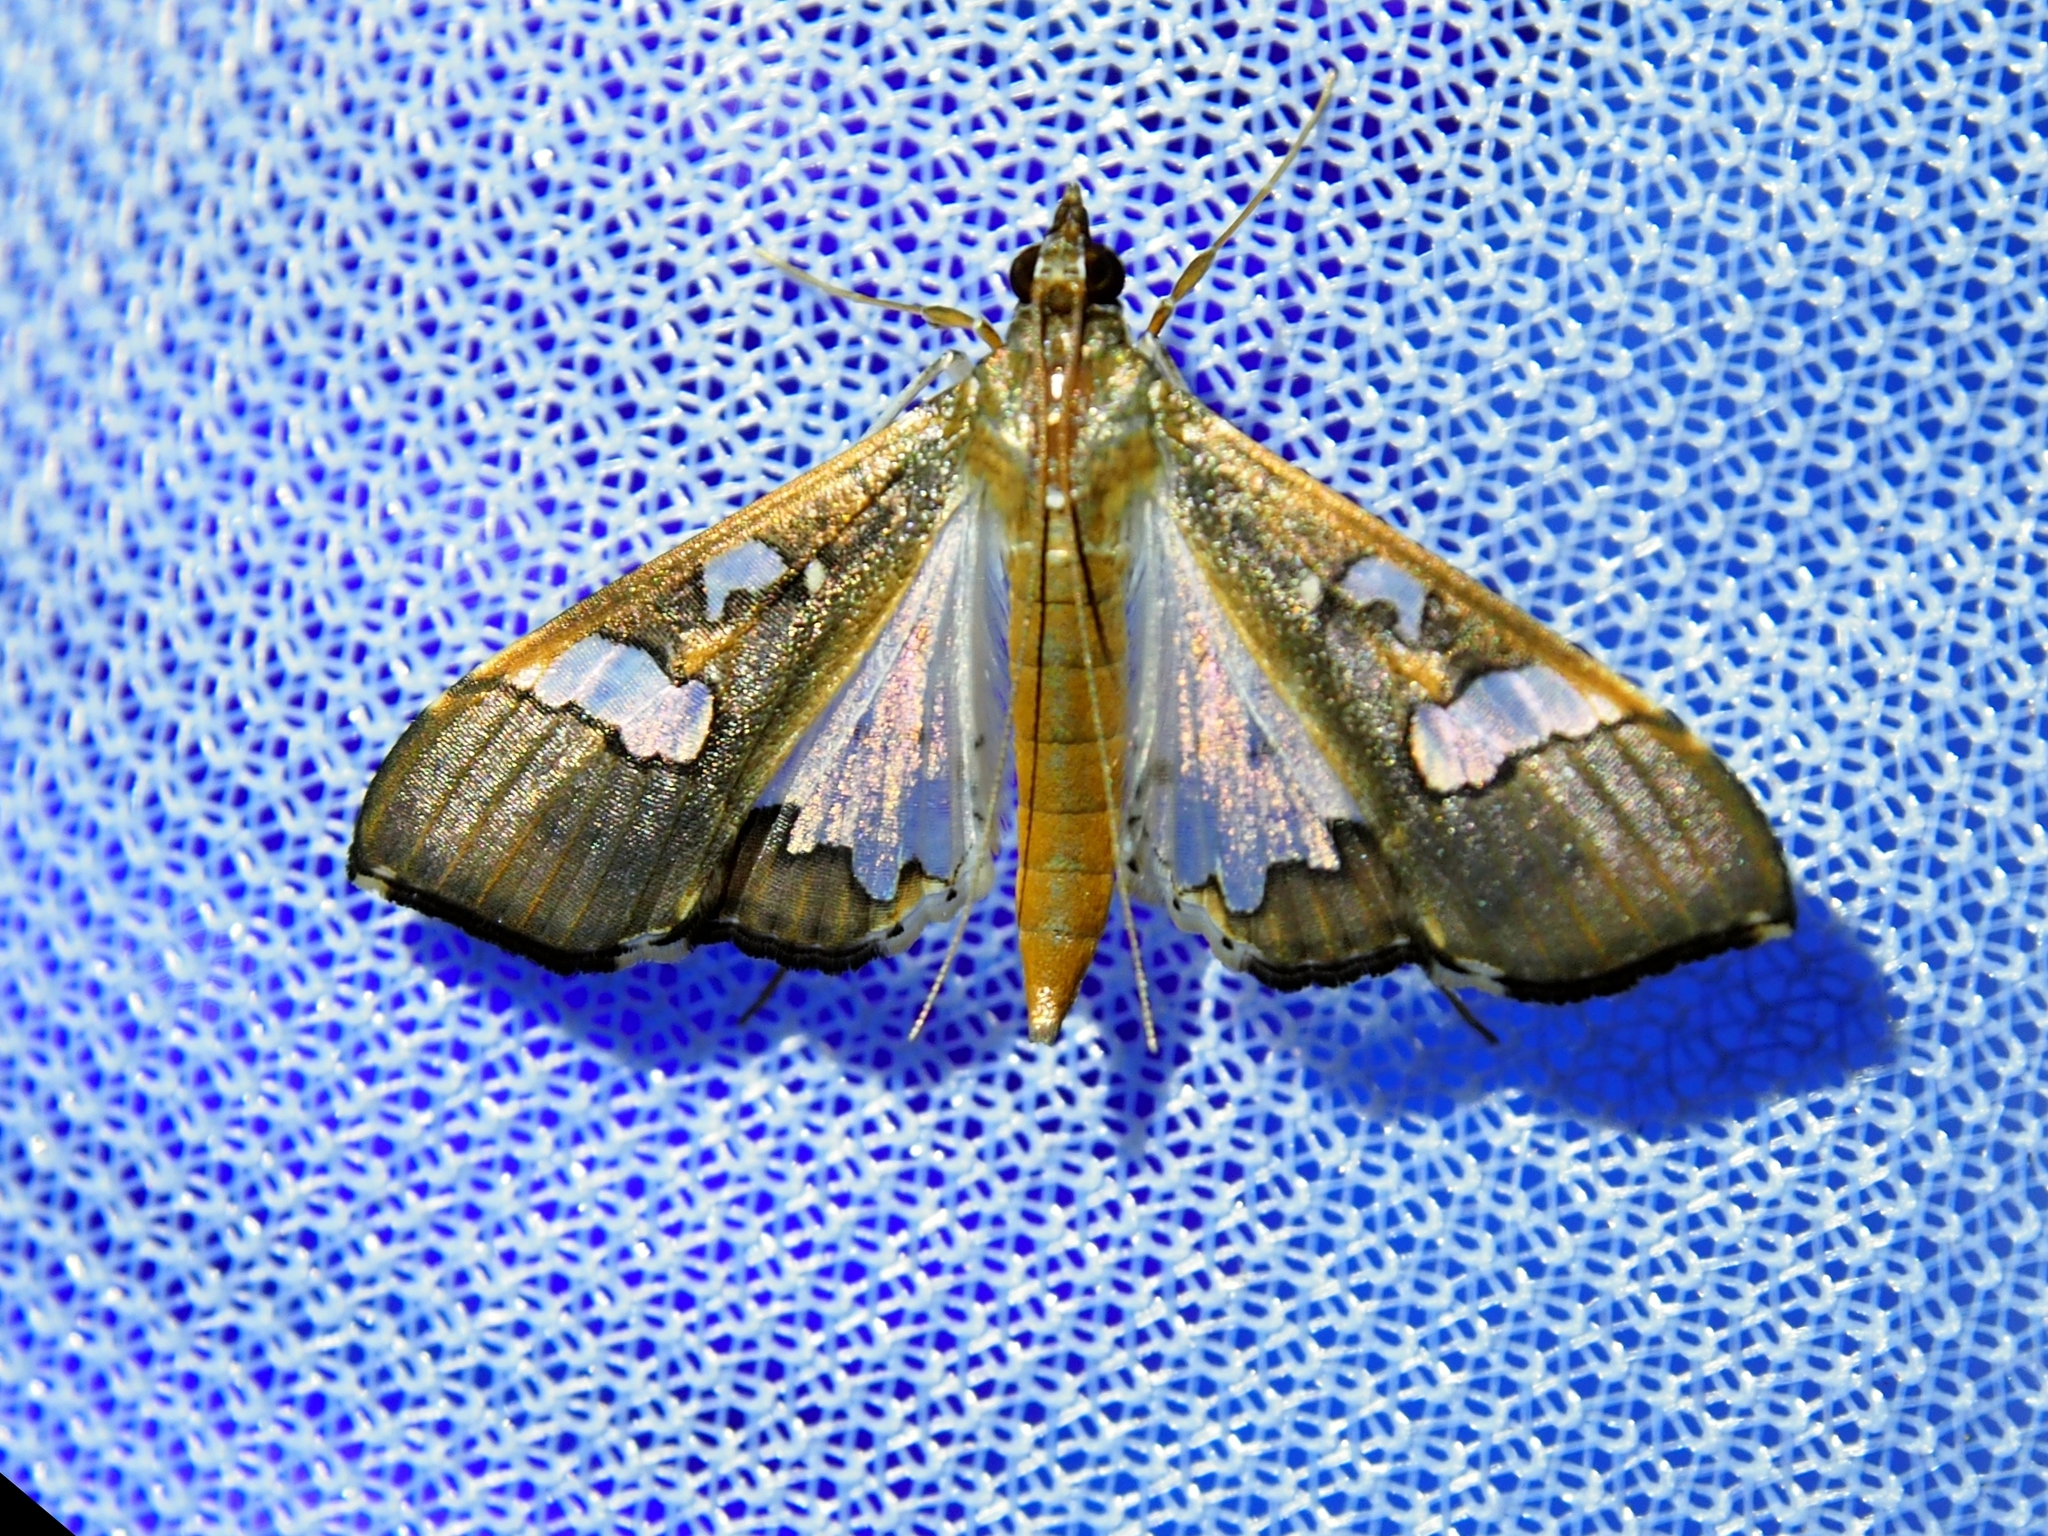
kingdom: Animalia
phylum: Arthropoda
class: Insecta
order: Lepidoptera
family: Crambidae
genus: Maruca
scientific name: Maruca vitrata
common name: Maruca pod borer
